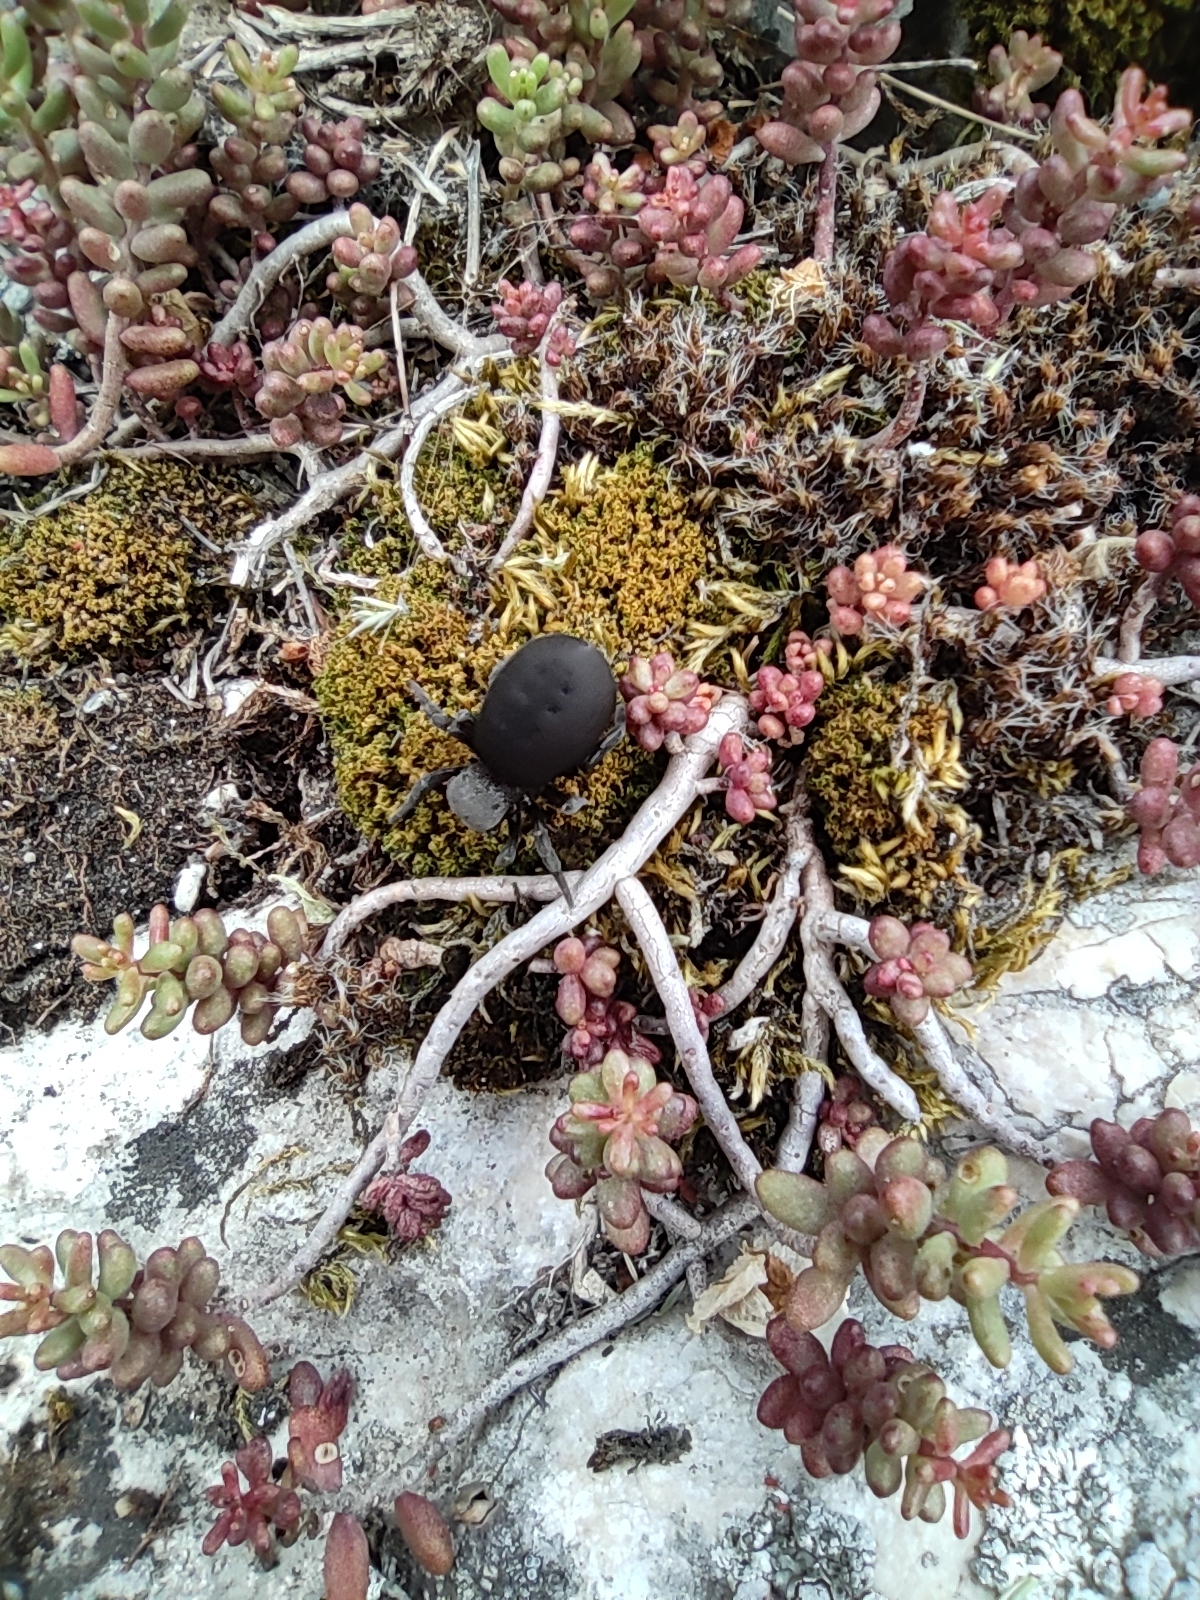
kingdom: Animalia
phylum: Arthropoda
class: Arachnida
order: Araneae
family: Eresidae
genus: Eresus
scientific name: Eresus hermani
